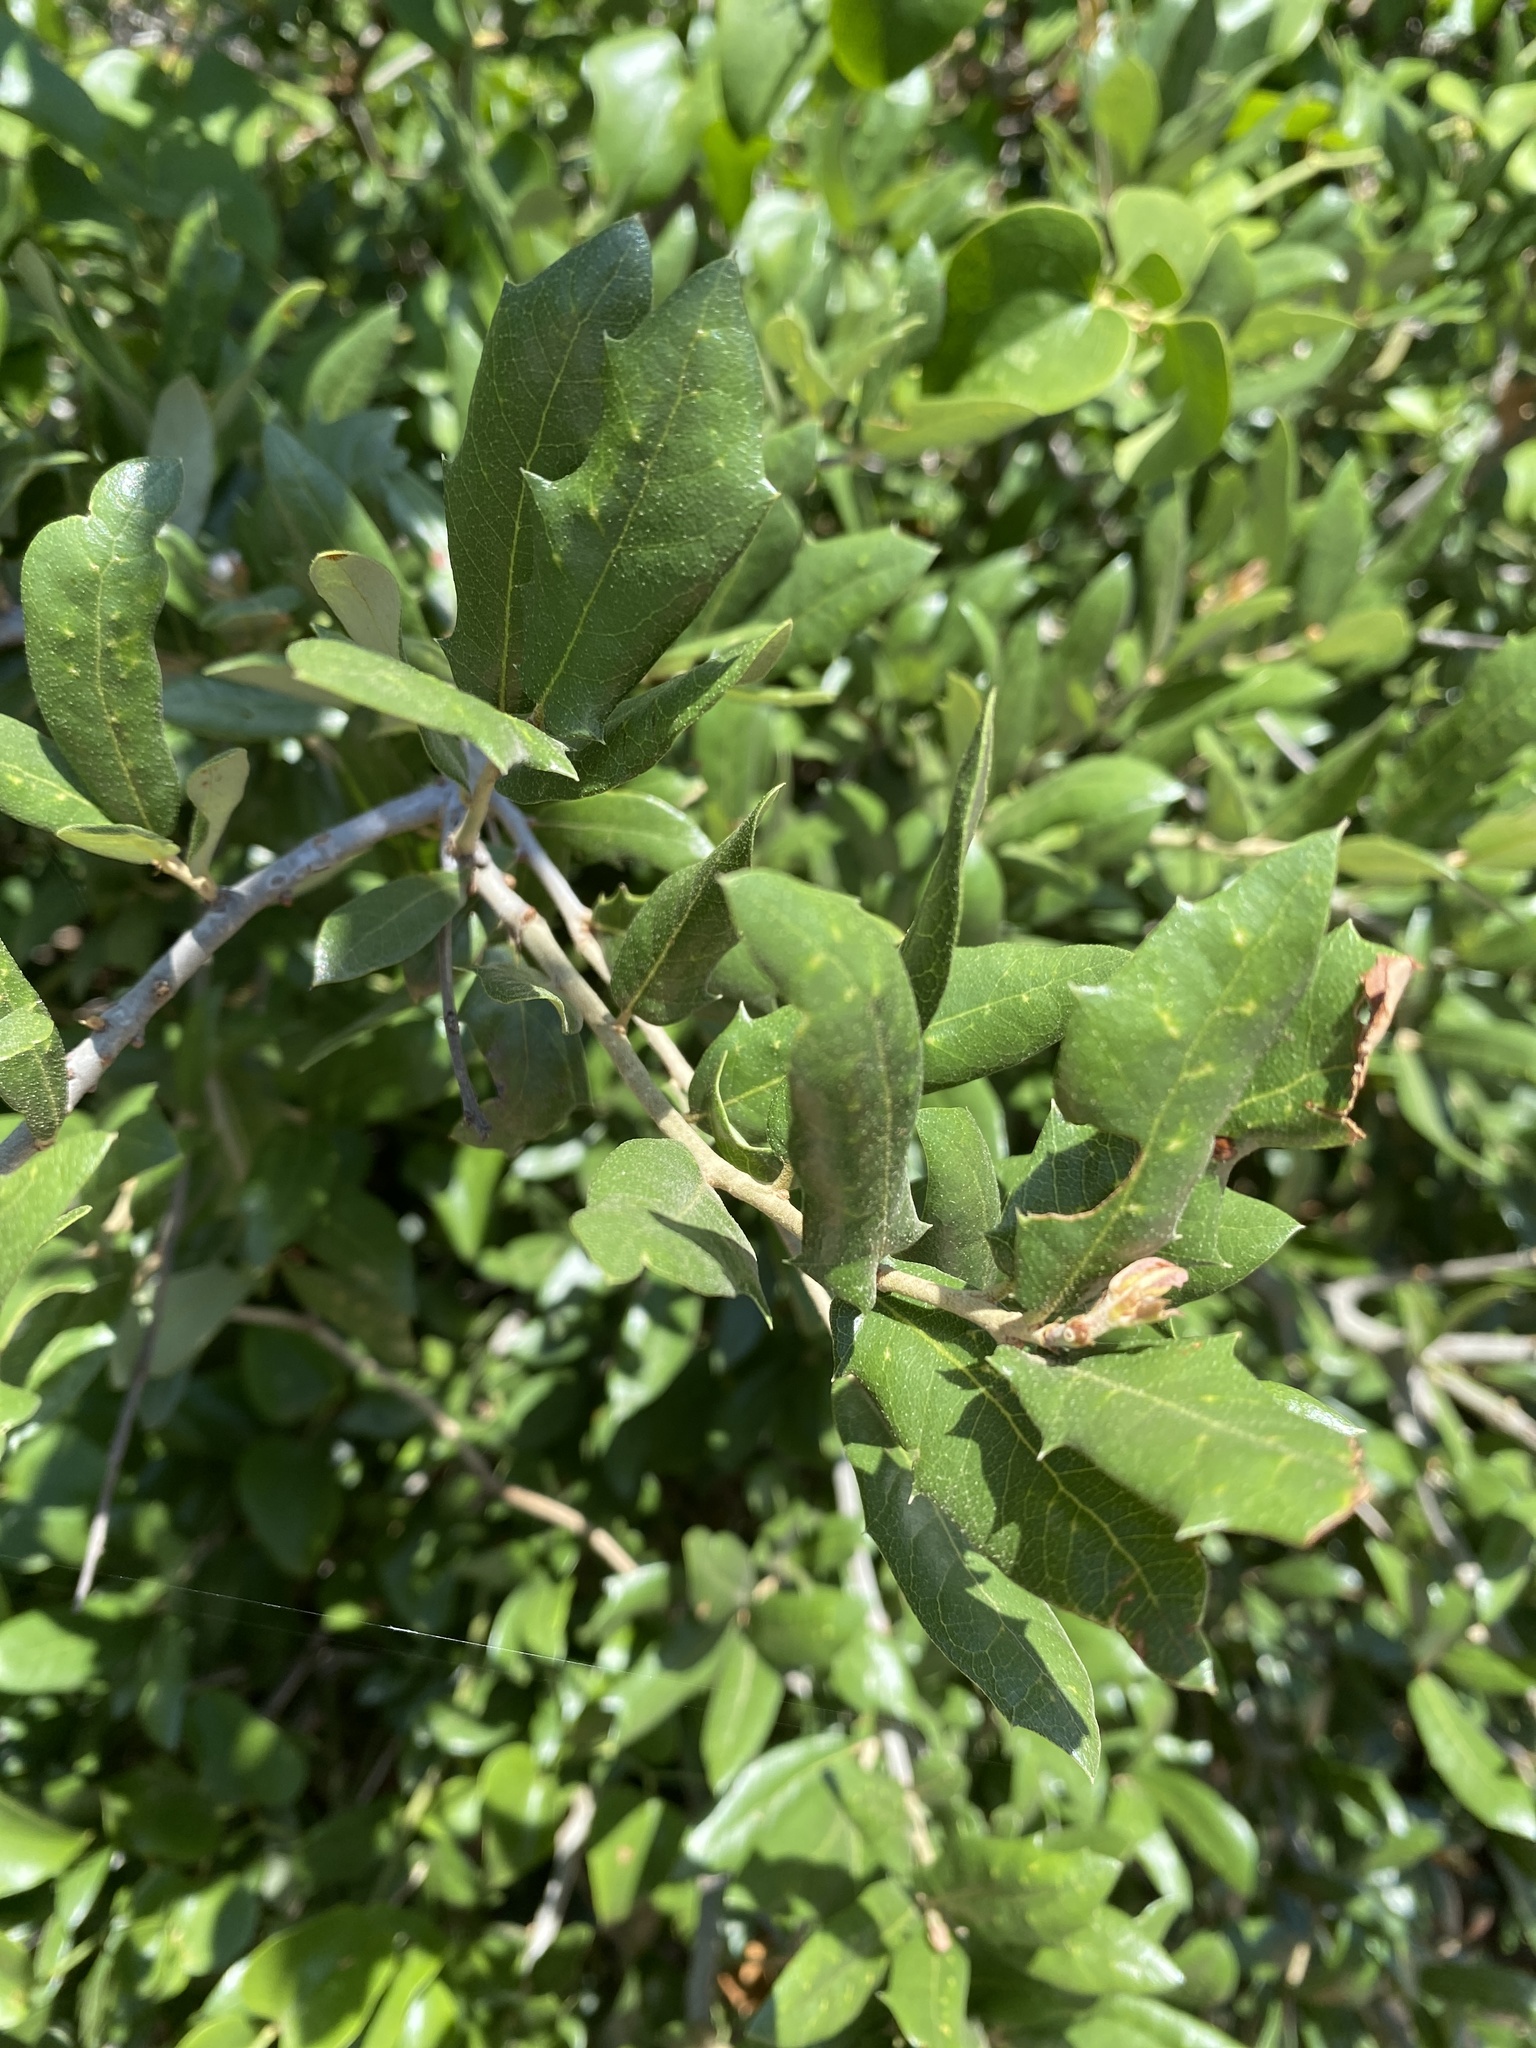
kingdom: Plantae
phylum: Tracheophyta
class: Magnoliopsida
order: Fagales
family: Fagaceae
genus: Quercus
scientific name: Quercus fusiformis
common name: Texas live oak
